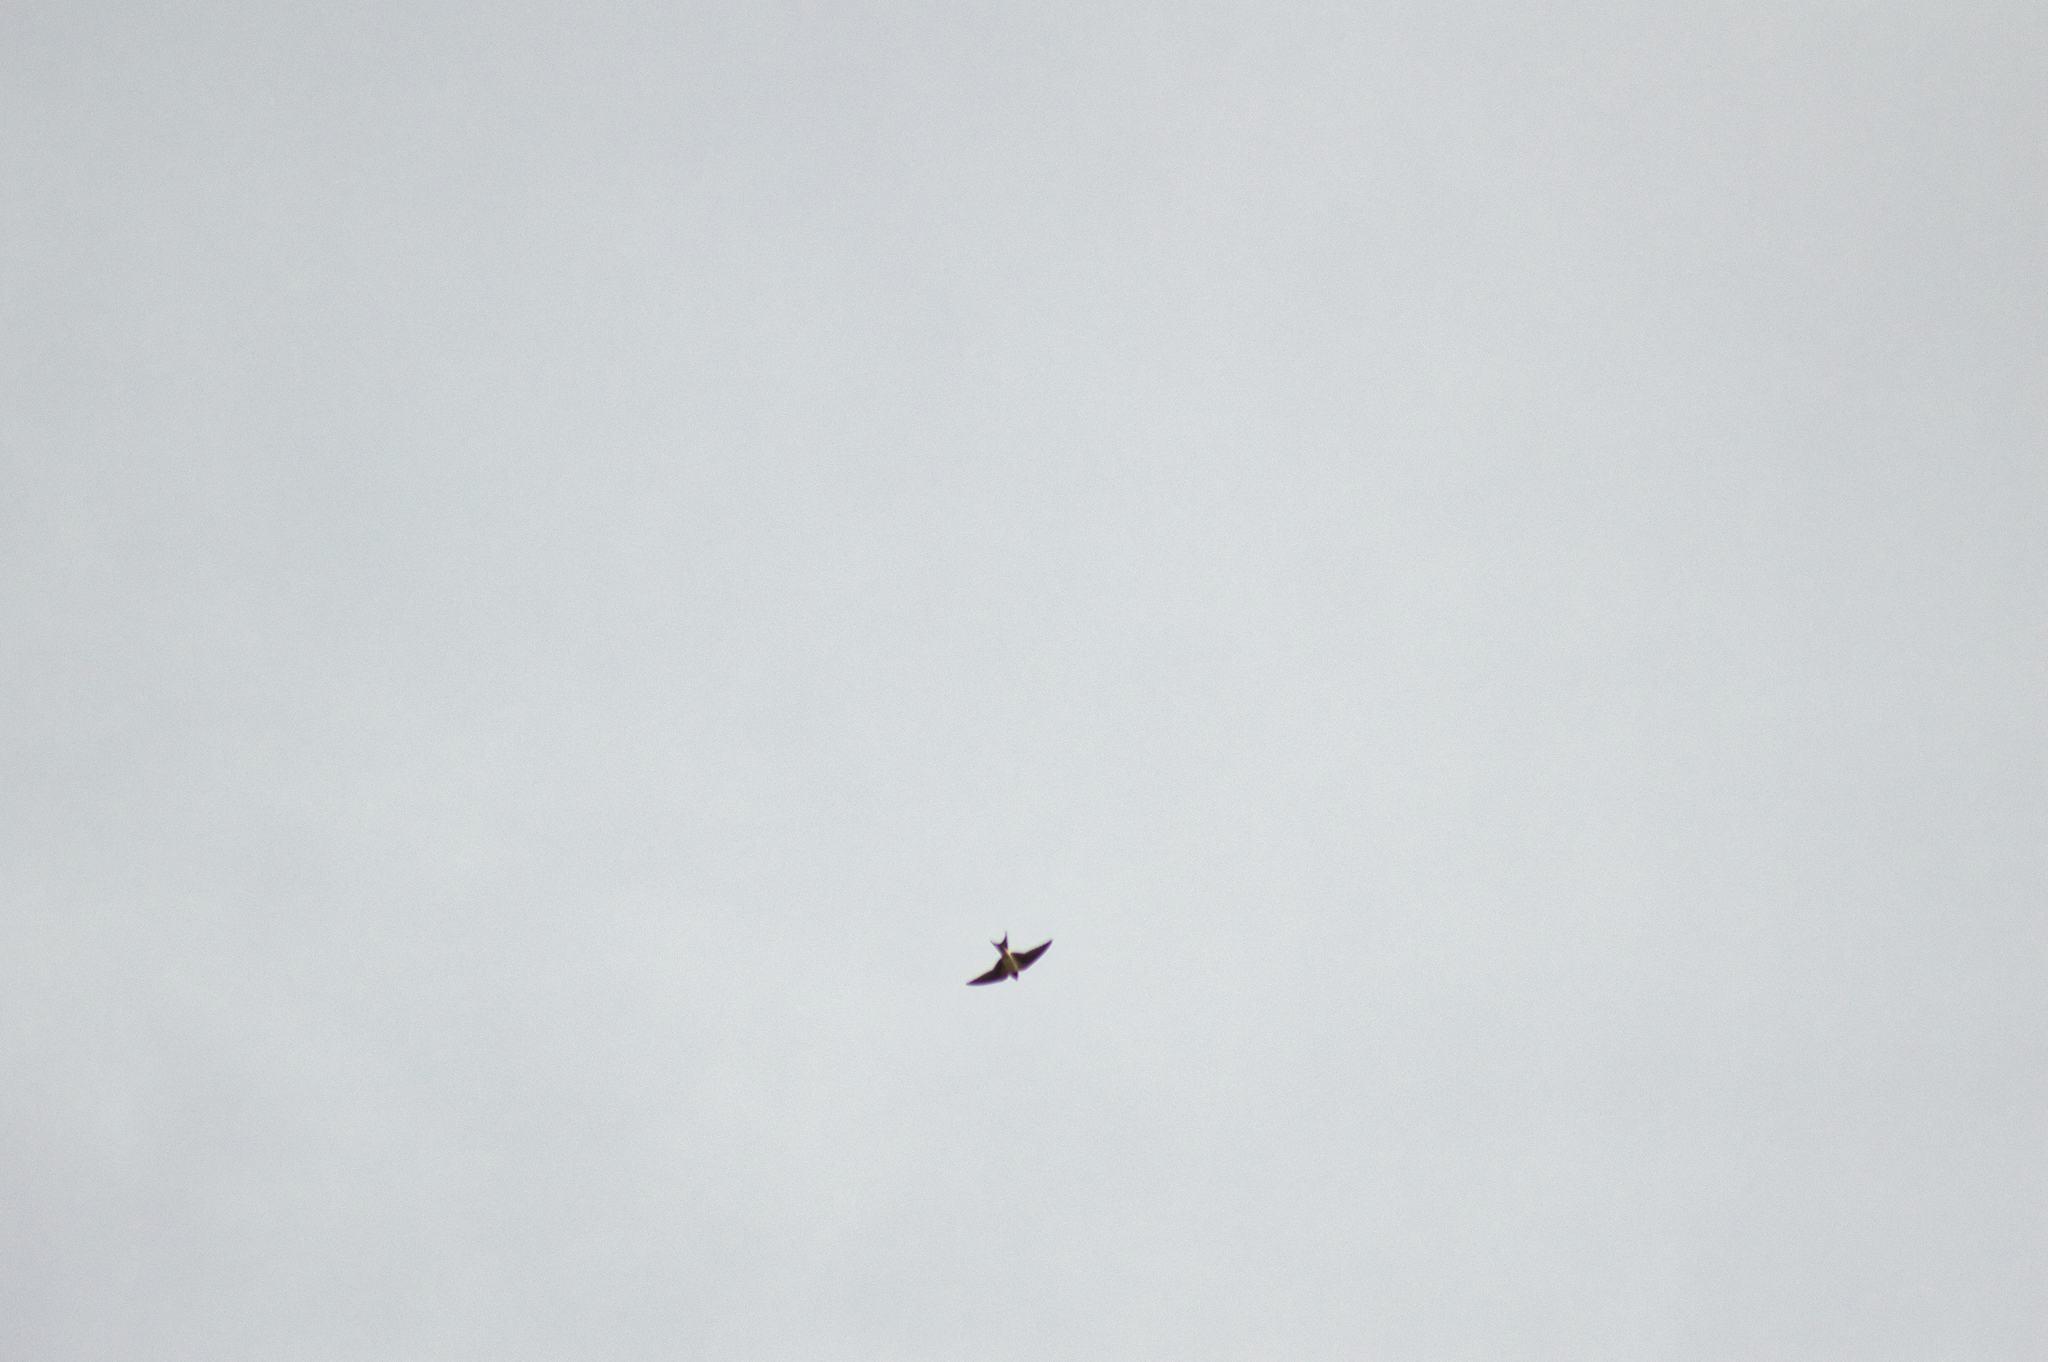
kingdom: Animalia
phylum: Chordata
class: Aves
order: Passeriformes
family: Hirundinidae
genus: Hirundo
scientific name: Hirundo rustica
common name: Barn swallow
